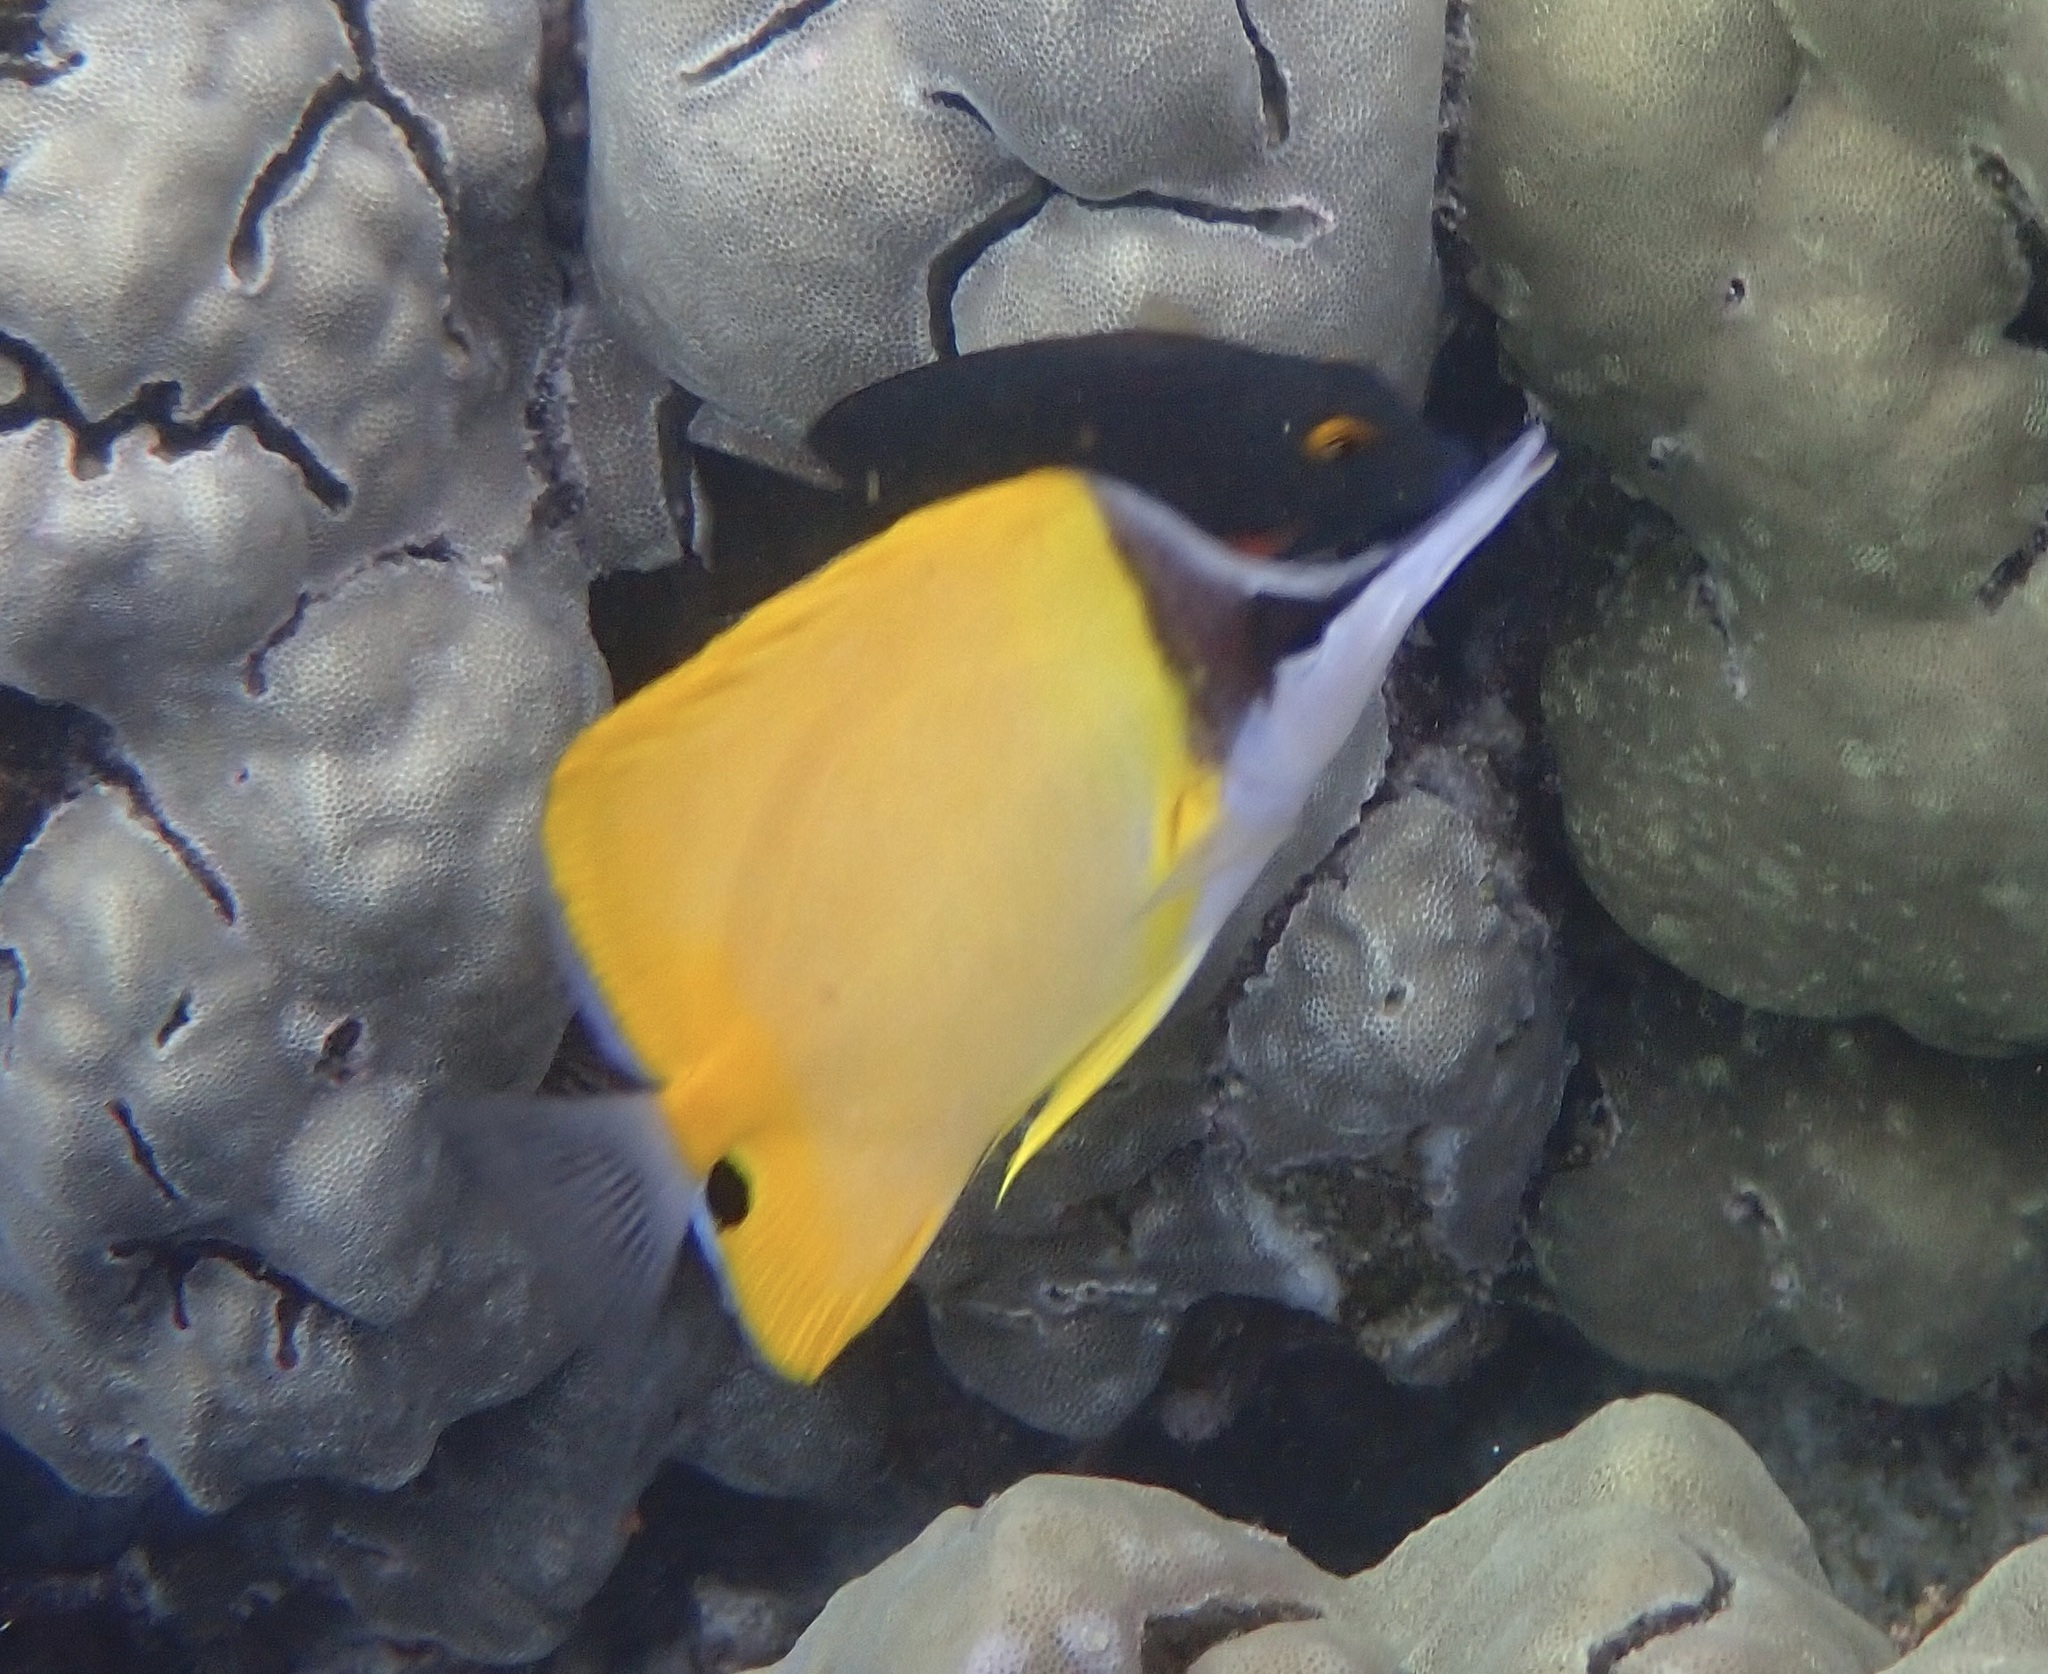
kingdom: Animalia
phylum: Chordata
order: Perciformes
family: Chaetodontidae
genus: Forcipiger
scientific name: Forcipiger flavissimus
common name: Forcepsfish
